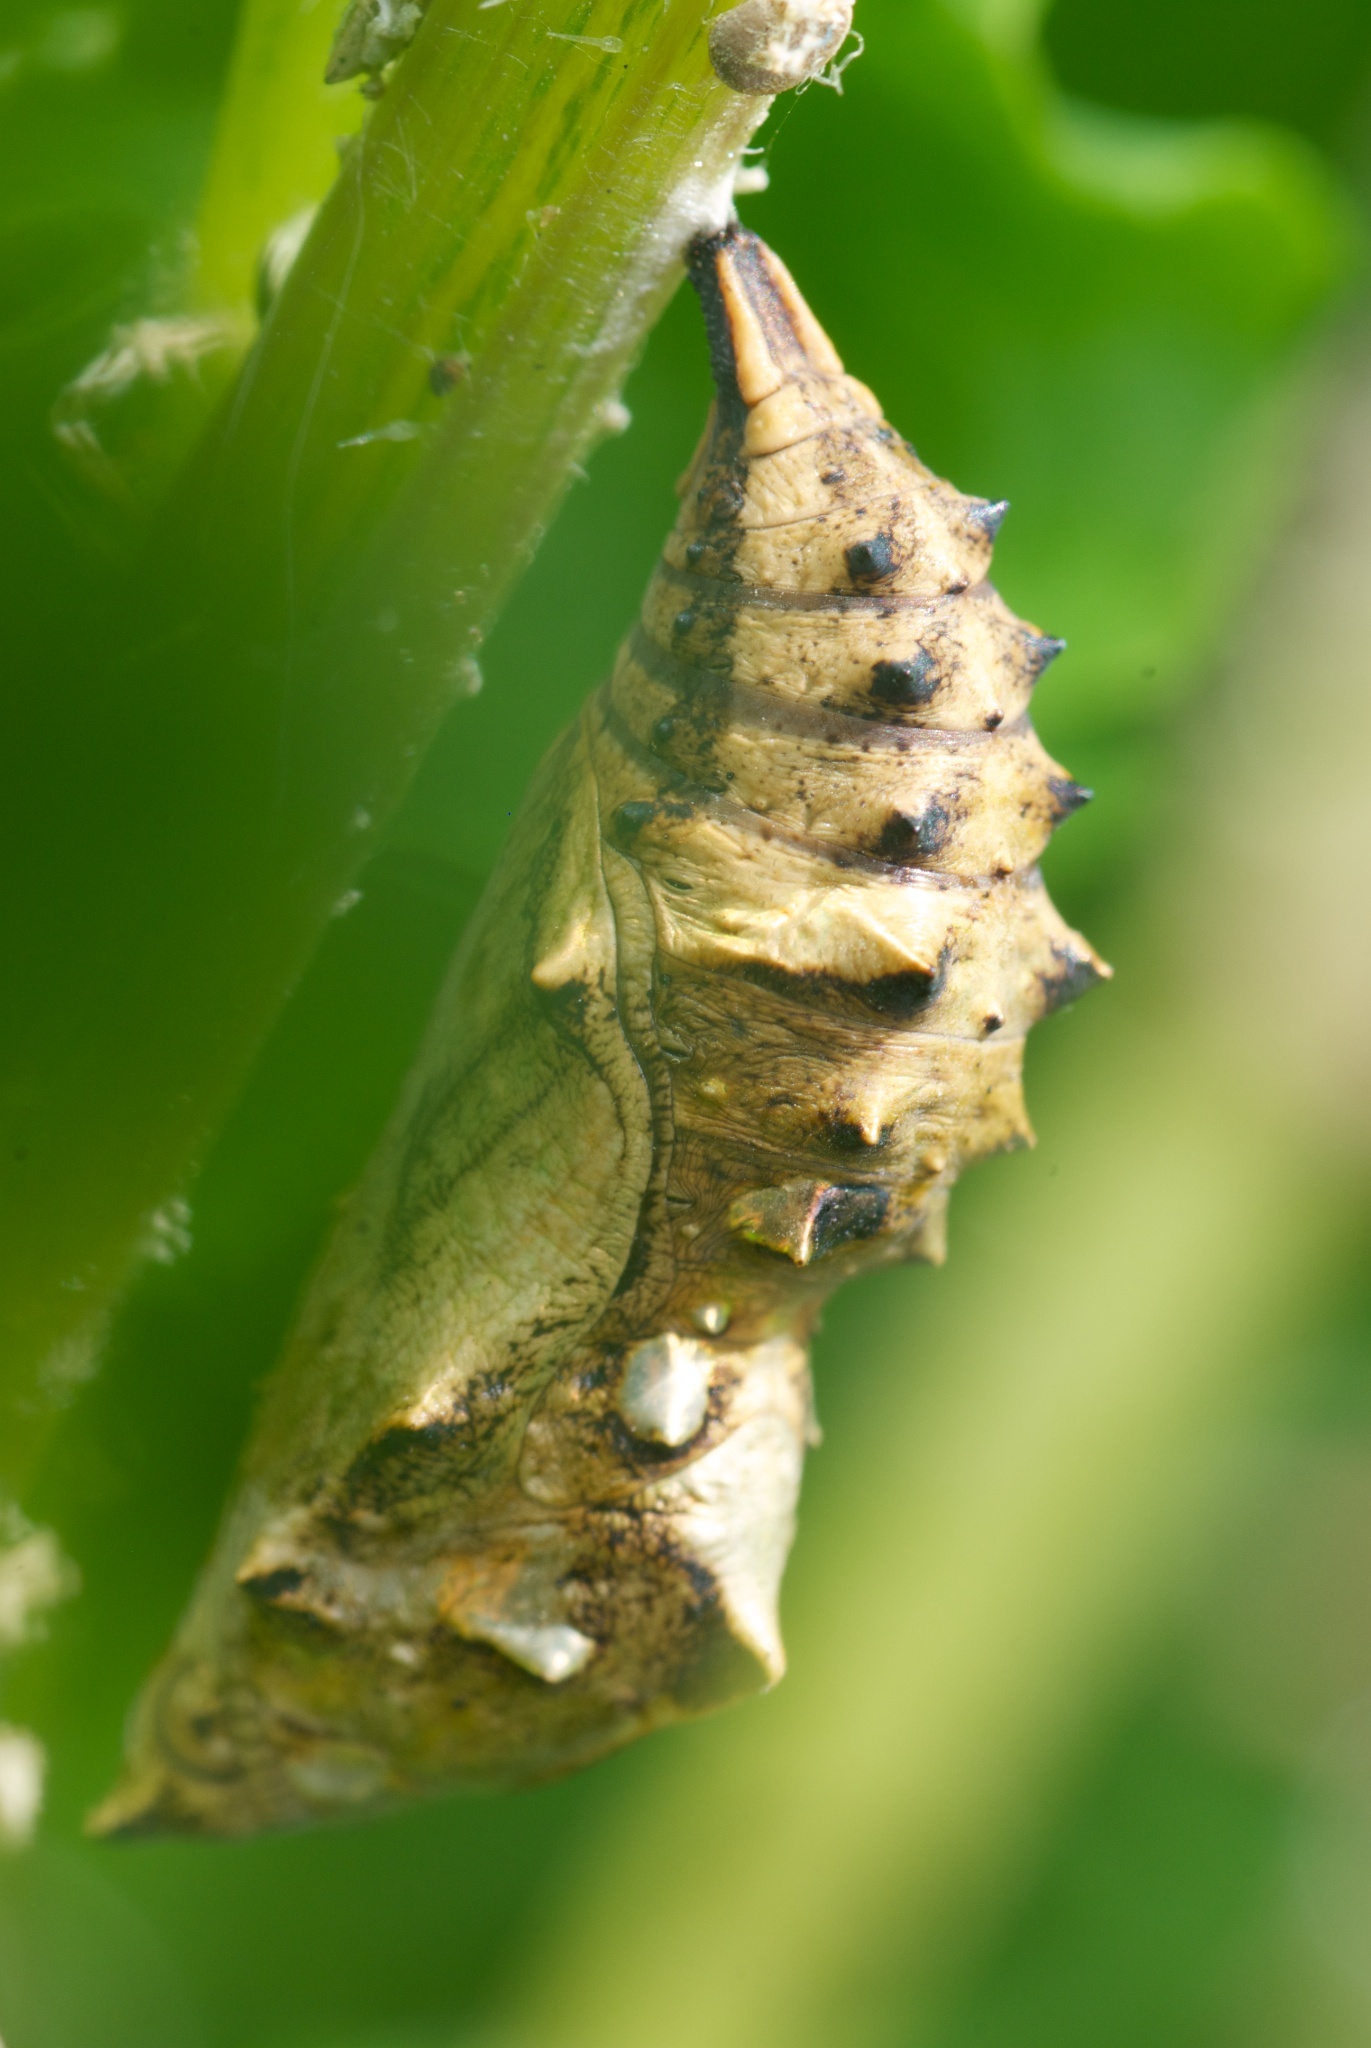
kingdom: Animalia
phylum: Arthropoda
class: Insecta
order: Lepidoptera
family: Nymphalidae
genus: Vanessa
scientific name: Vanessa itea
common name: Yellow admiral
